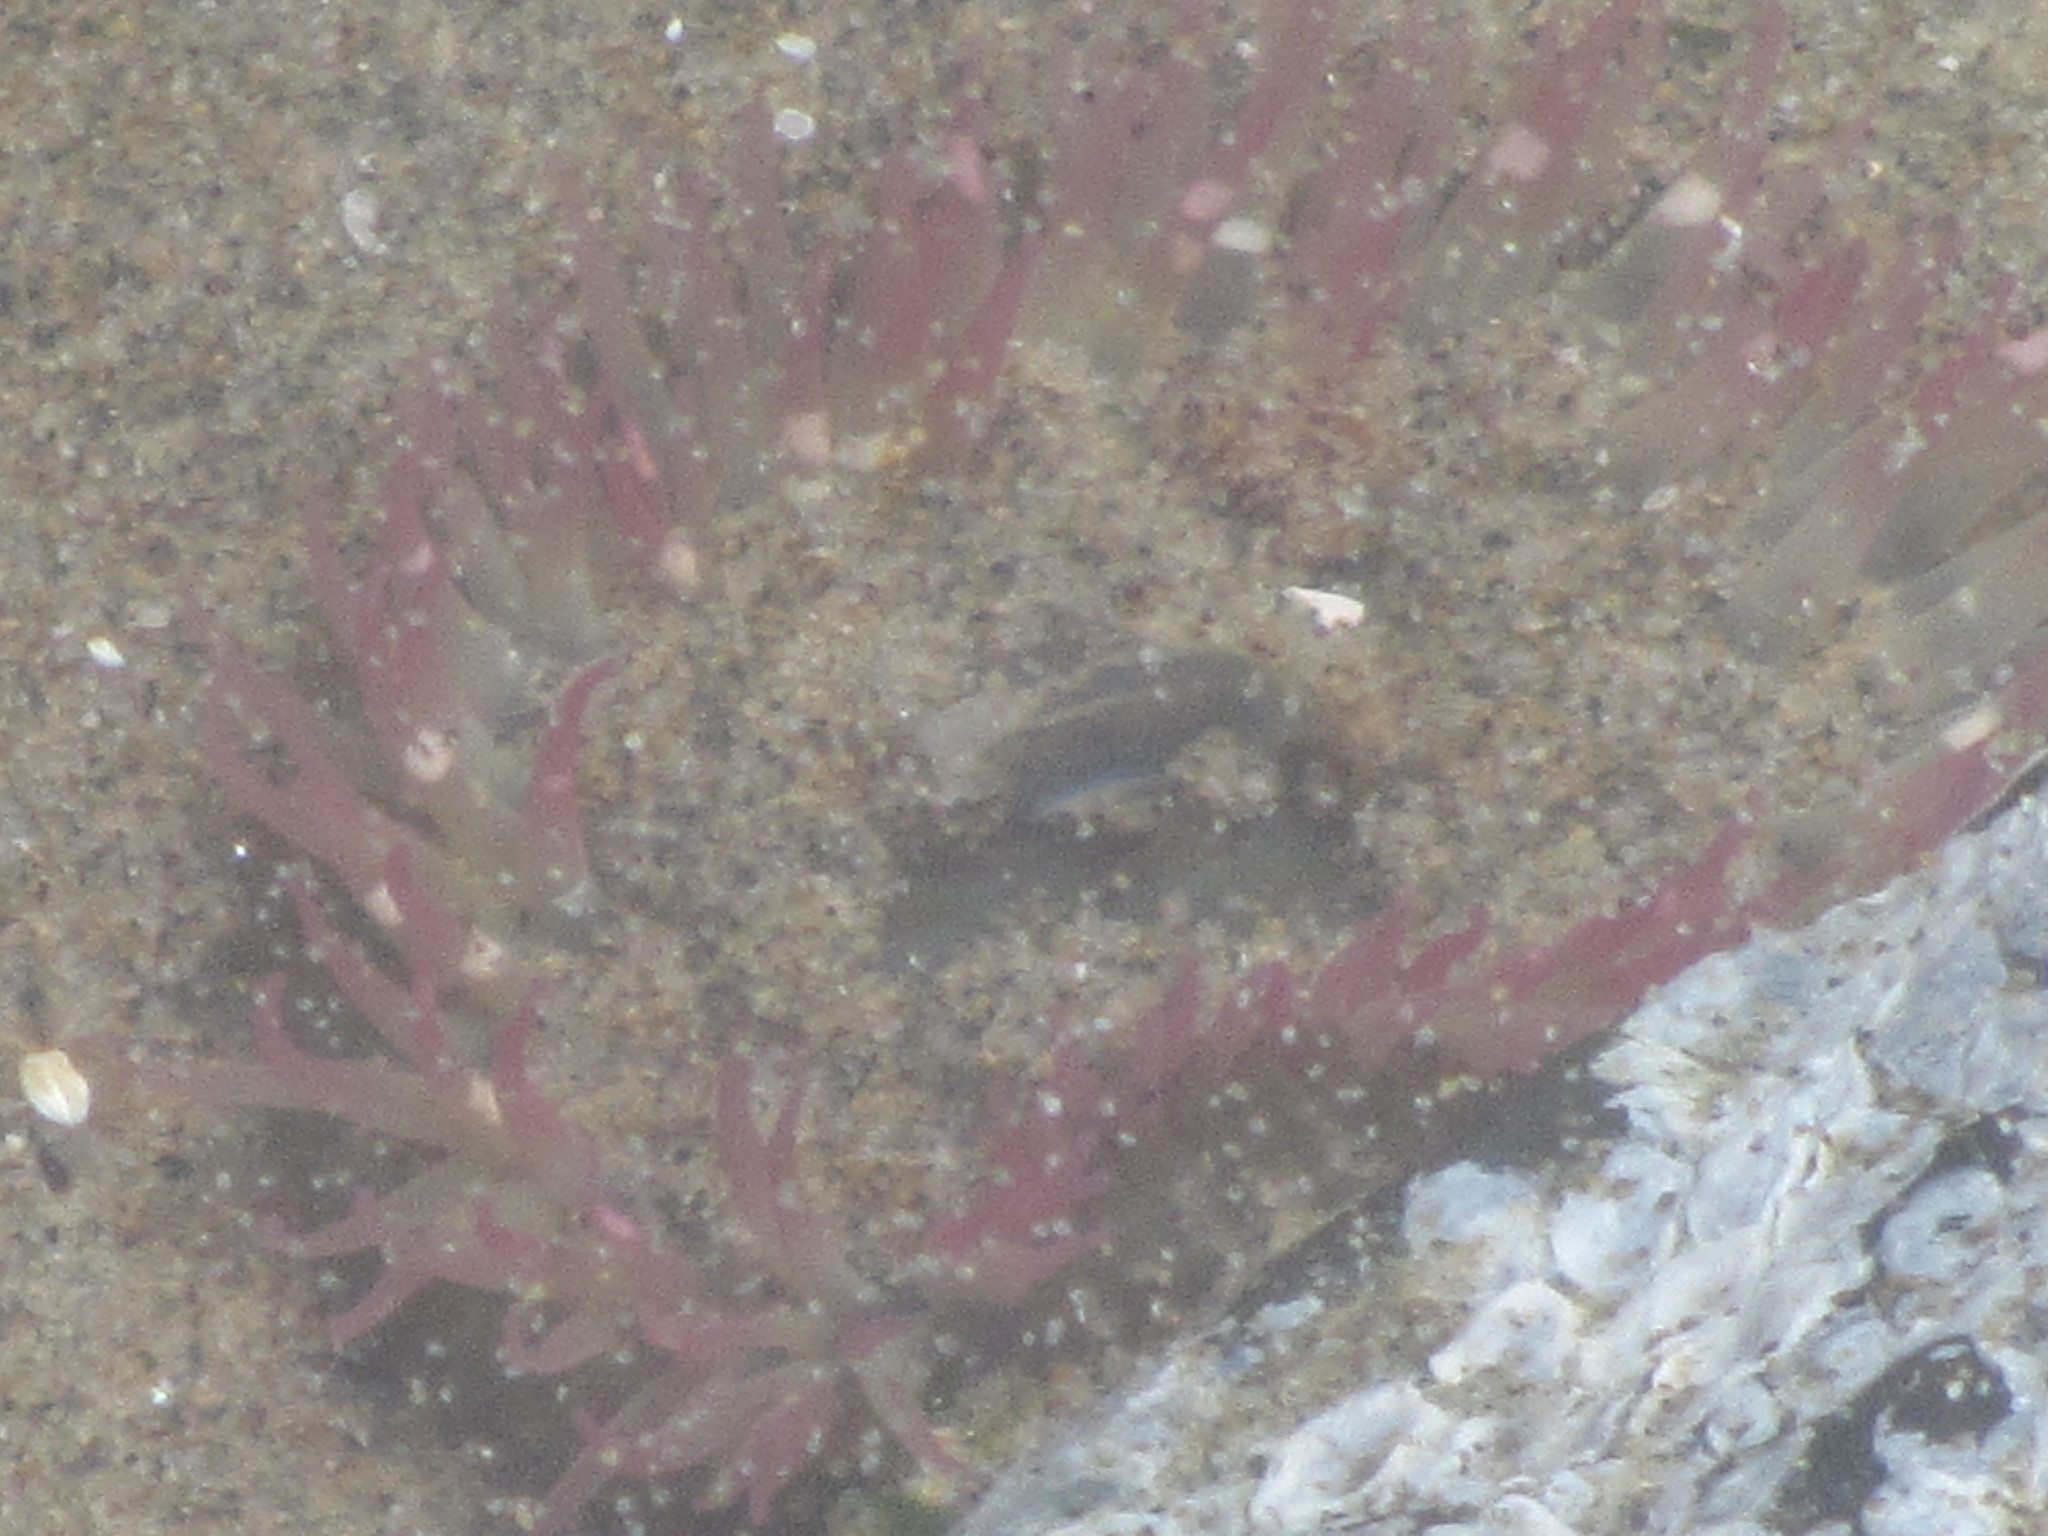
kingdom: Animalia
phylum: Cnidaria
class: Anthozoa
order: Actiniaria
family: Actiniidae
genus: Anthopleura
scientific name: Anthopleura elegantissima
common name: Clonal anemone
